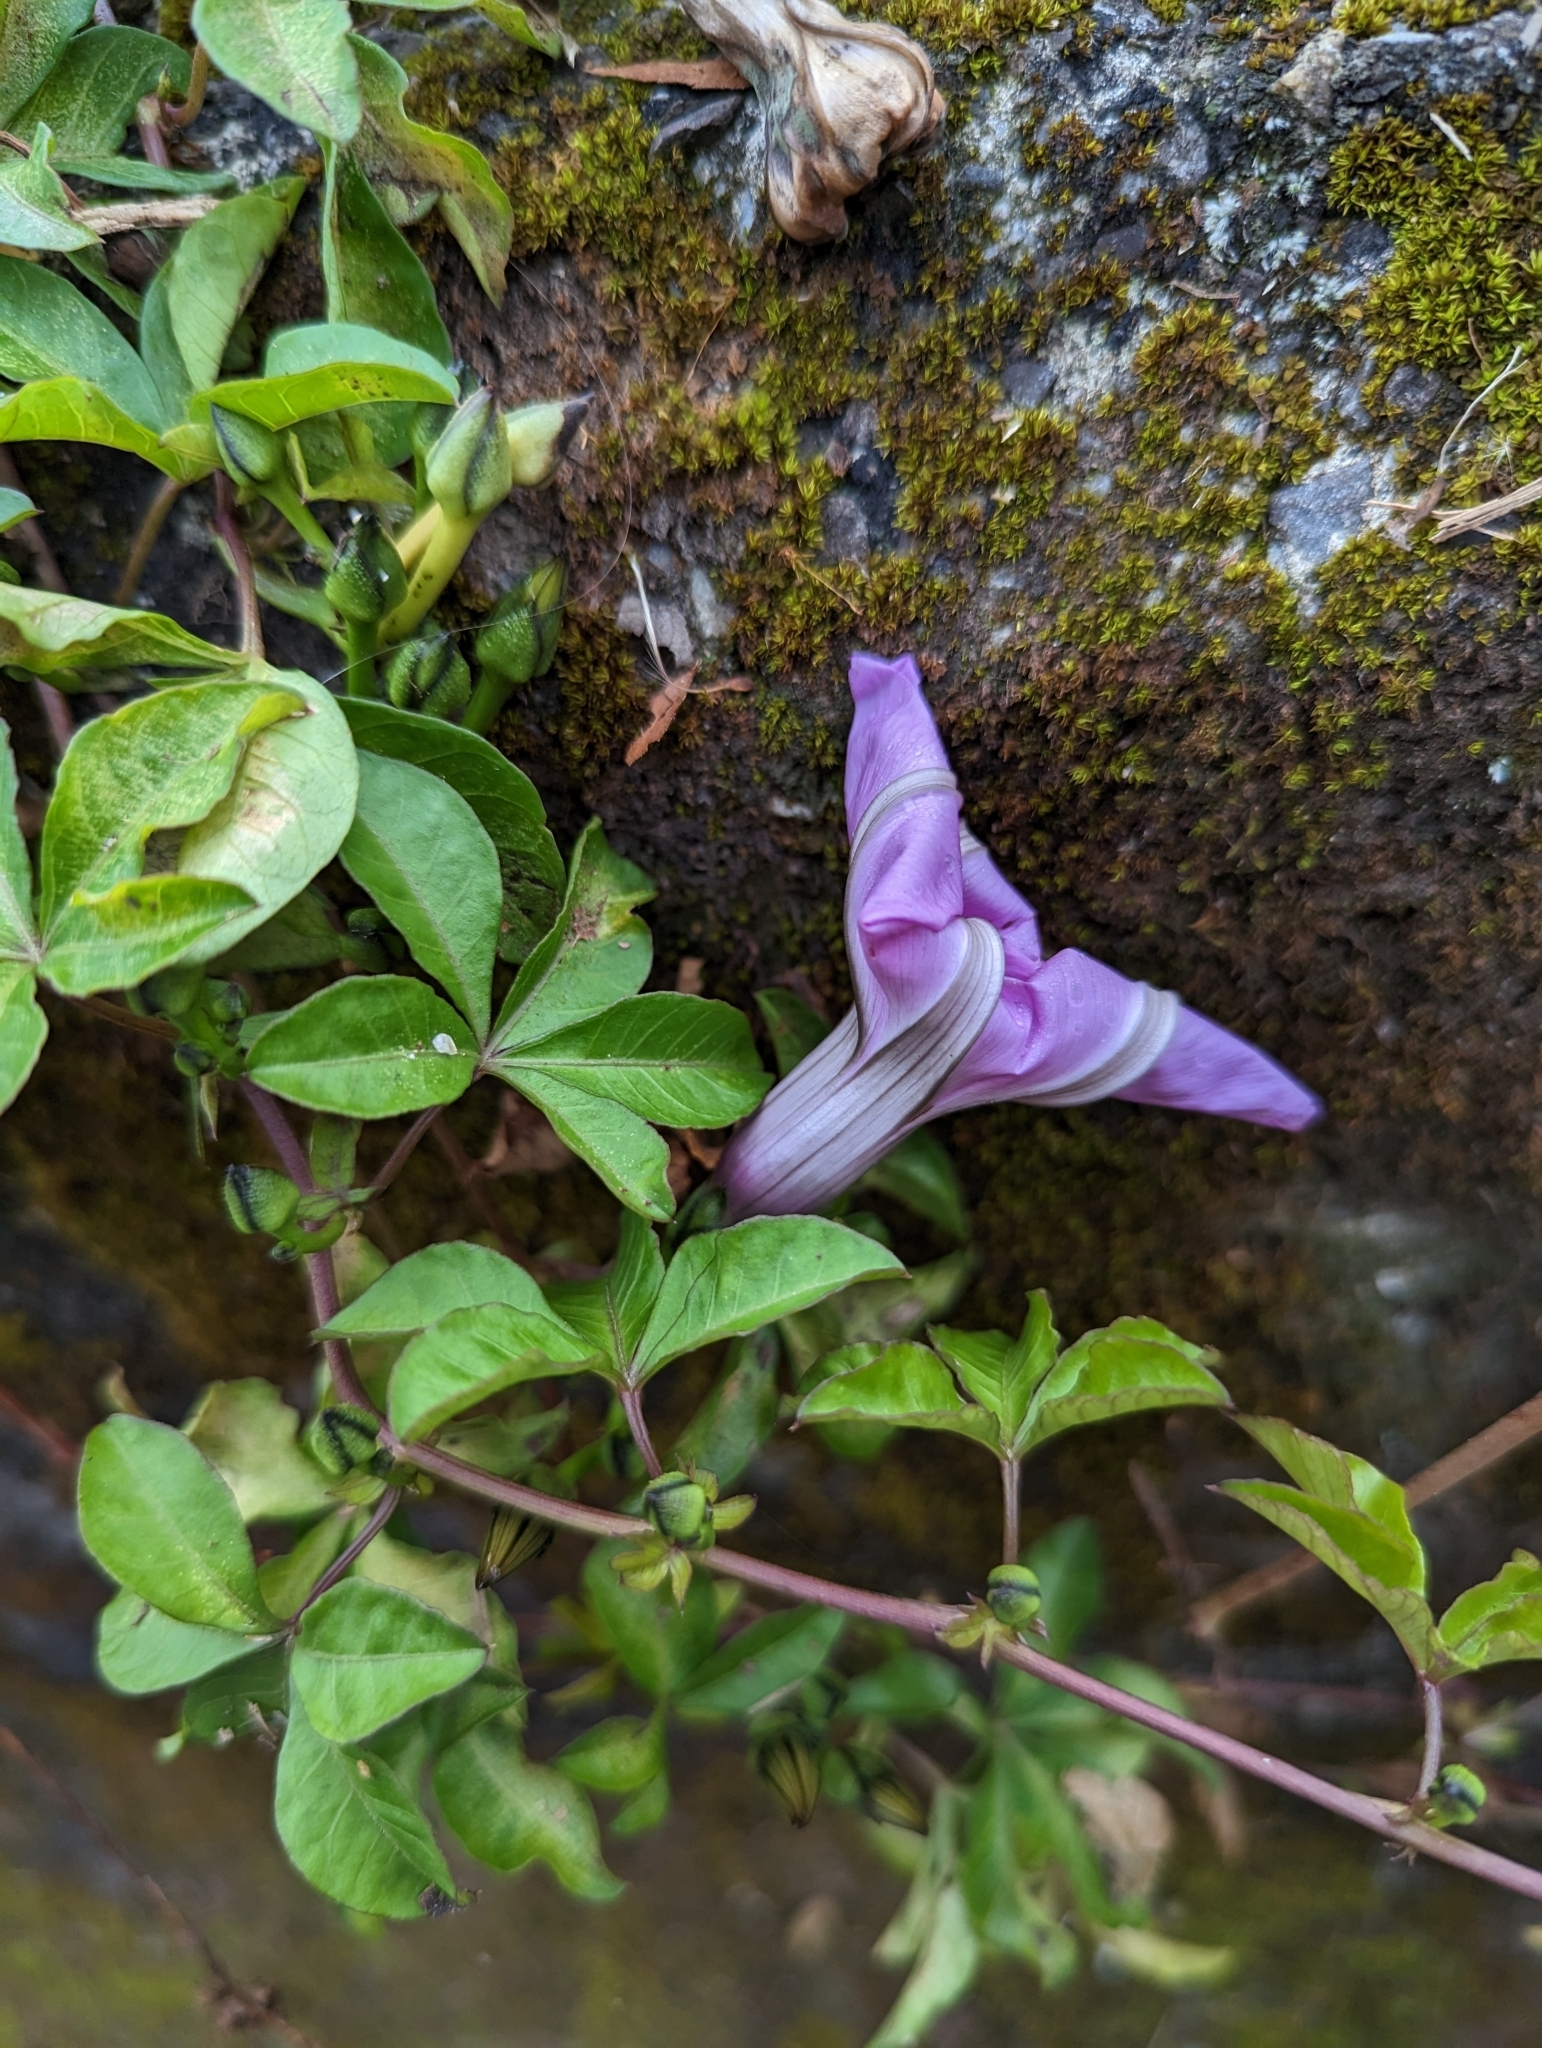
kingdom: Plantae
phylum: Tracheophyta
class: Magnoliopsida
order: Solanales
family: Convolvulaceae
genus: Ipomoea
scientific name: Ipomoea cairica
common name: Mile a minute vine
